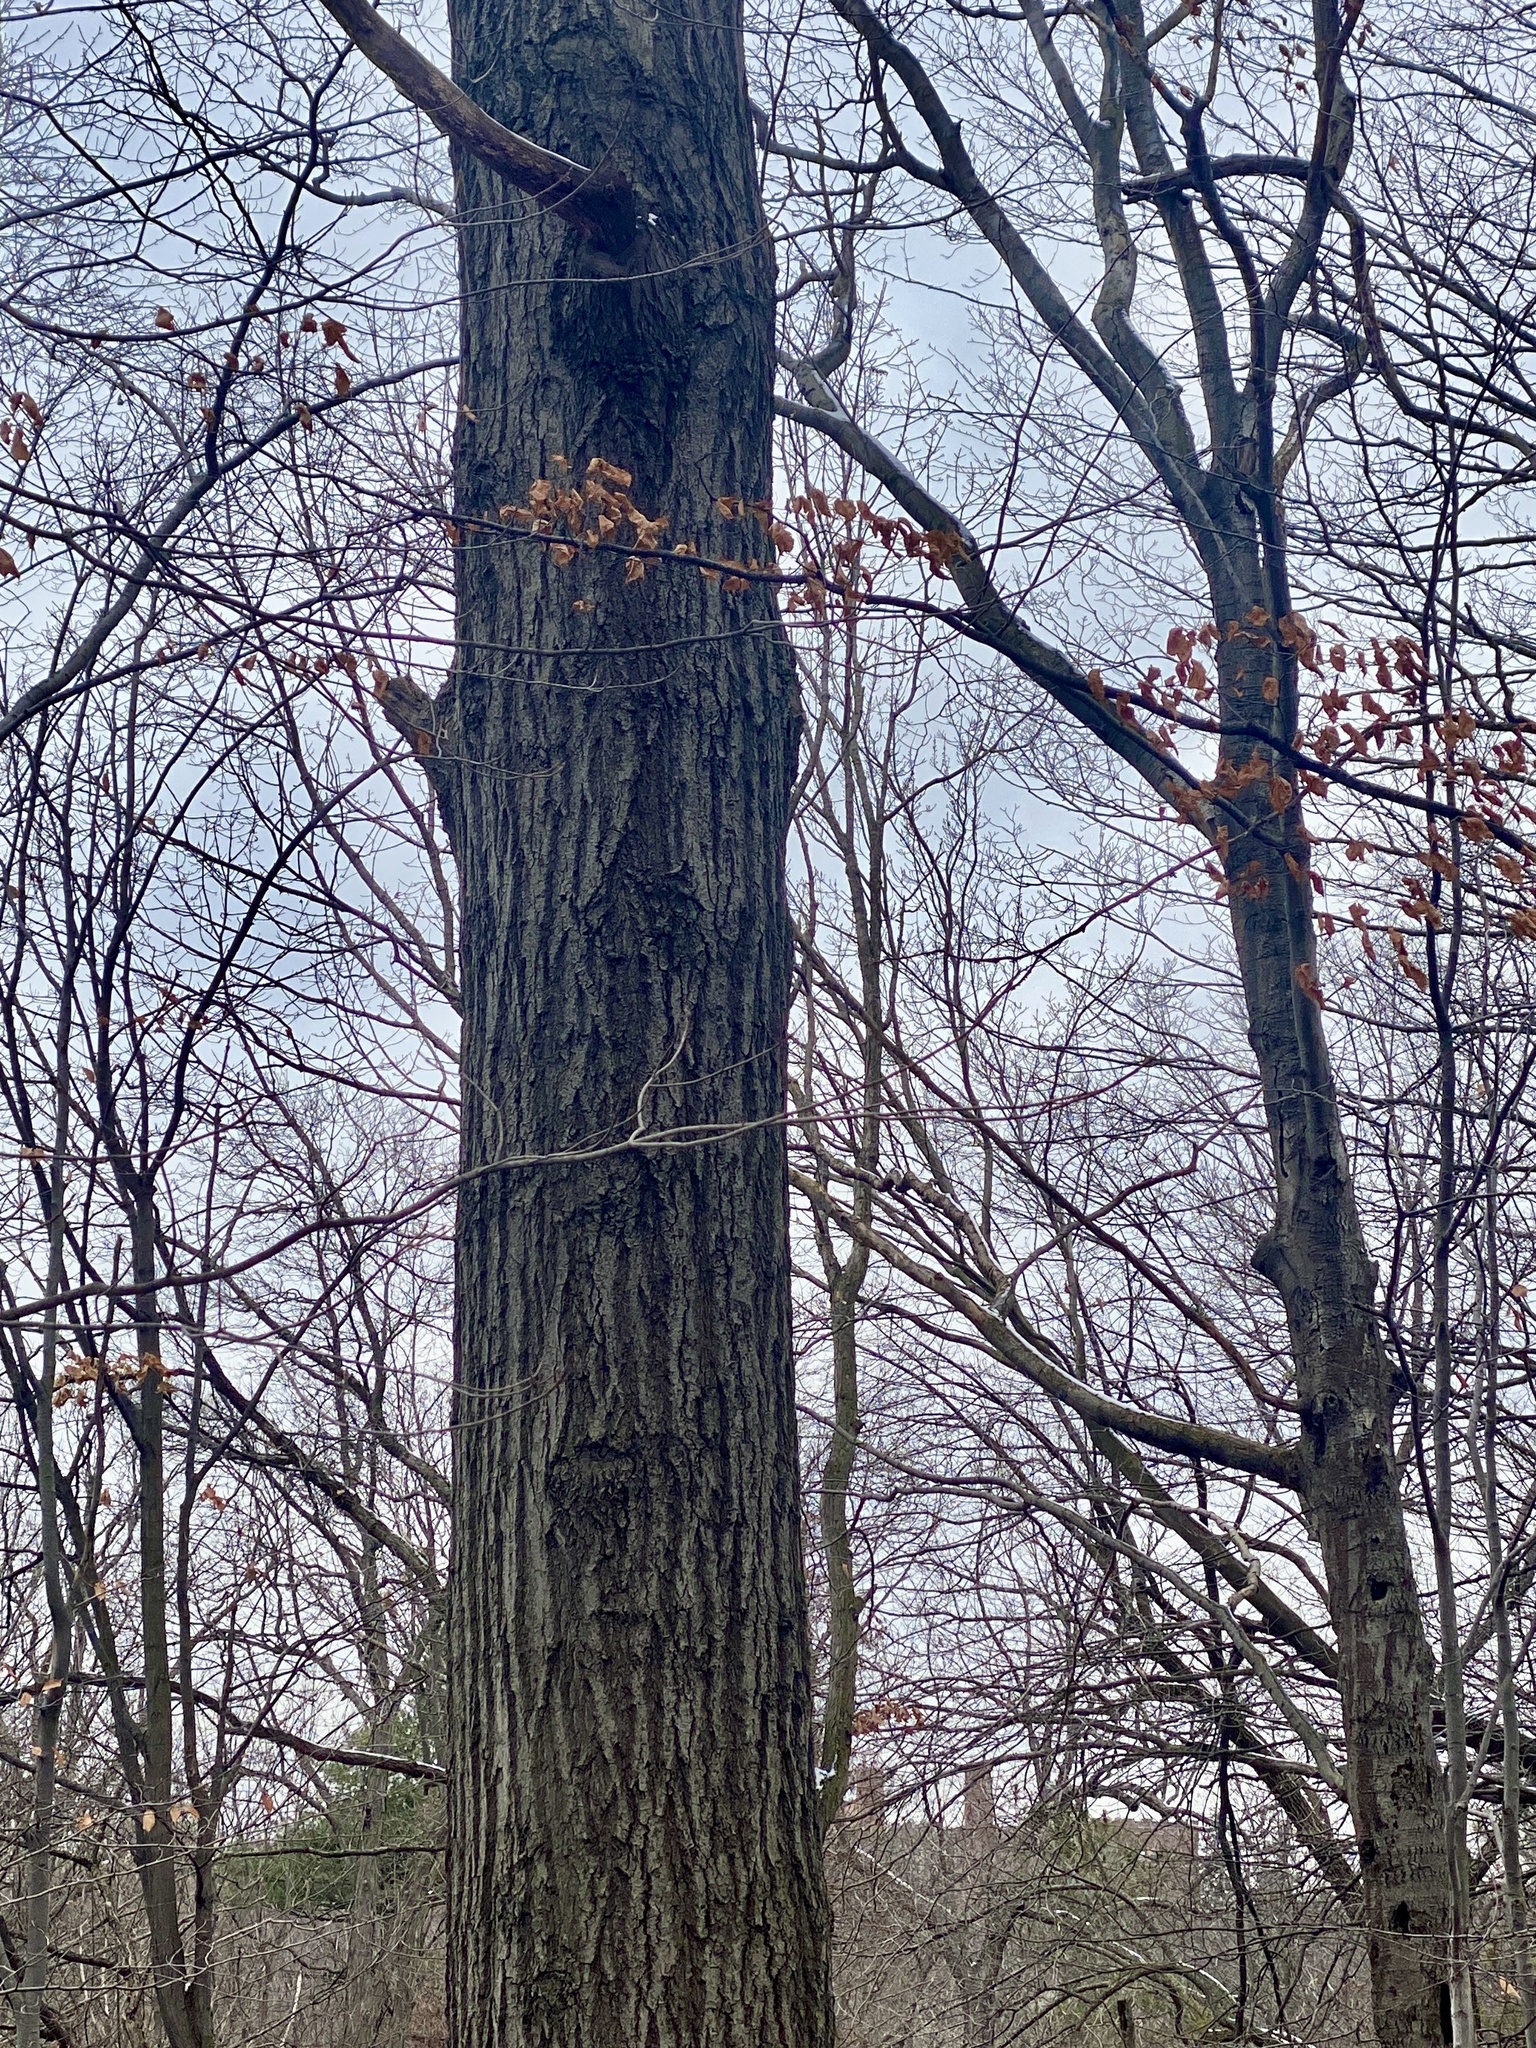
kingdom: Plantae
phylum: Tracheophyta
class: Magnoliopsida
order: Fagales
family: Fagaceae
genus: Quercus
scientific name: Quercus rubra
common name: Red oak
